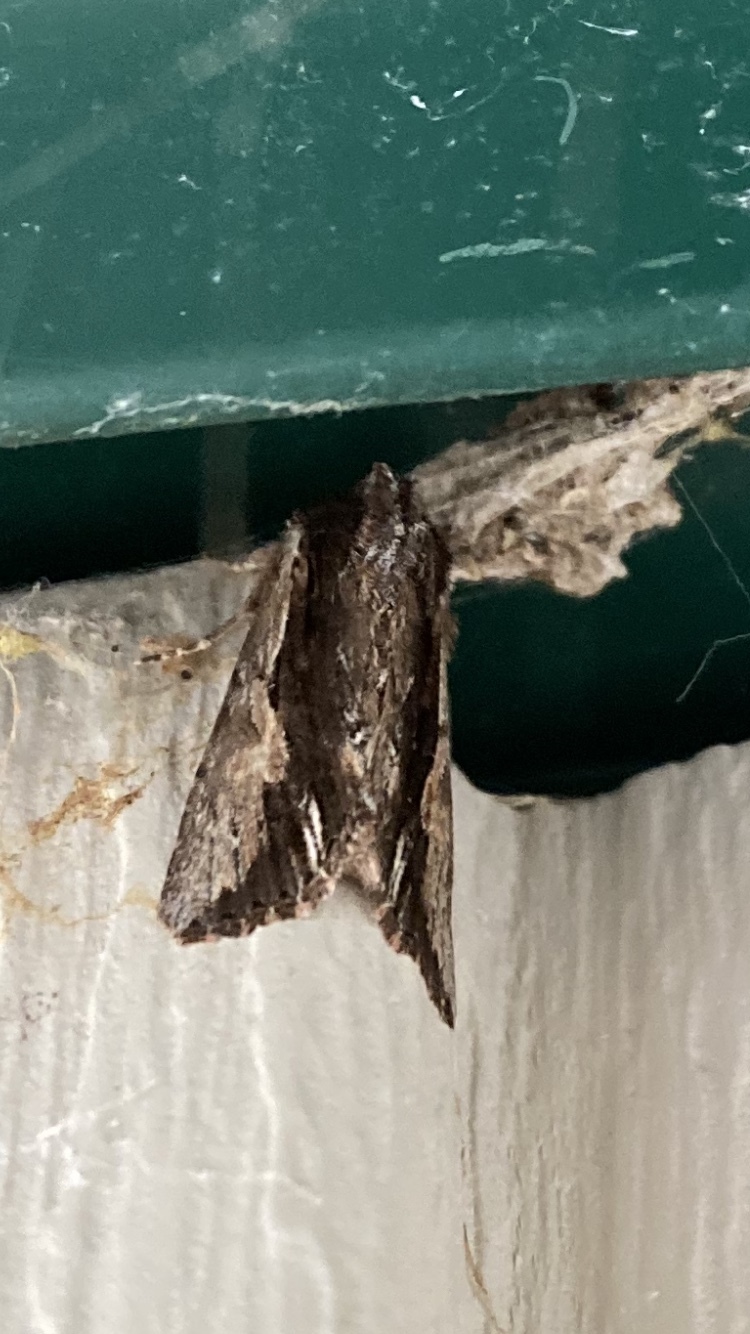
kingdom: Animalia
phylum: Arthropoda
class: Insecta
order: Lepidoptera
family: Noctuidae
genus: Achatia
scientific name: Achatia evicta
